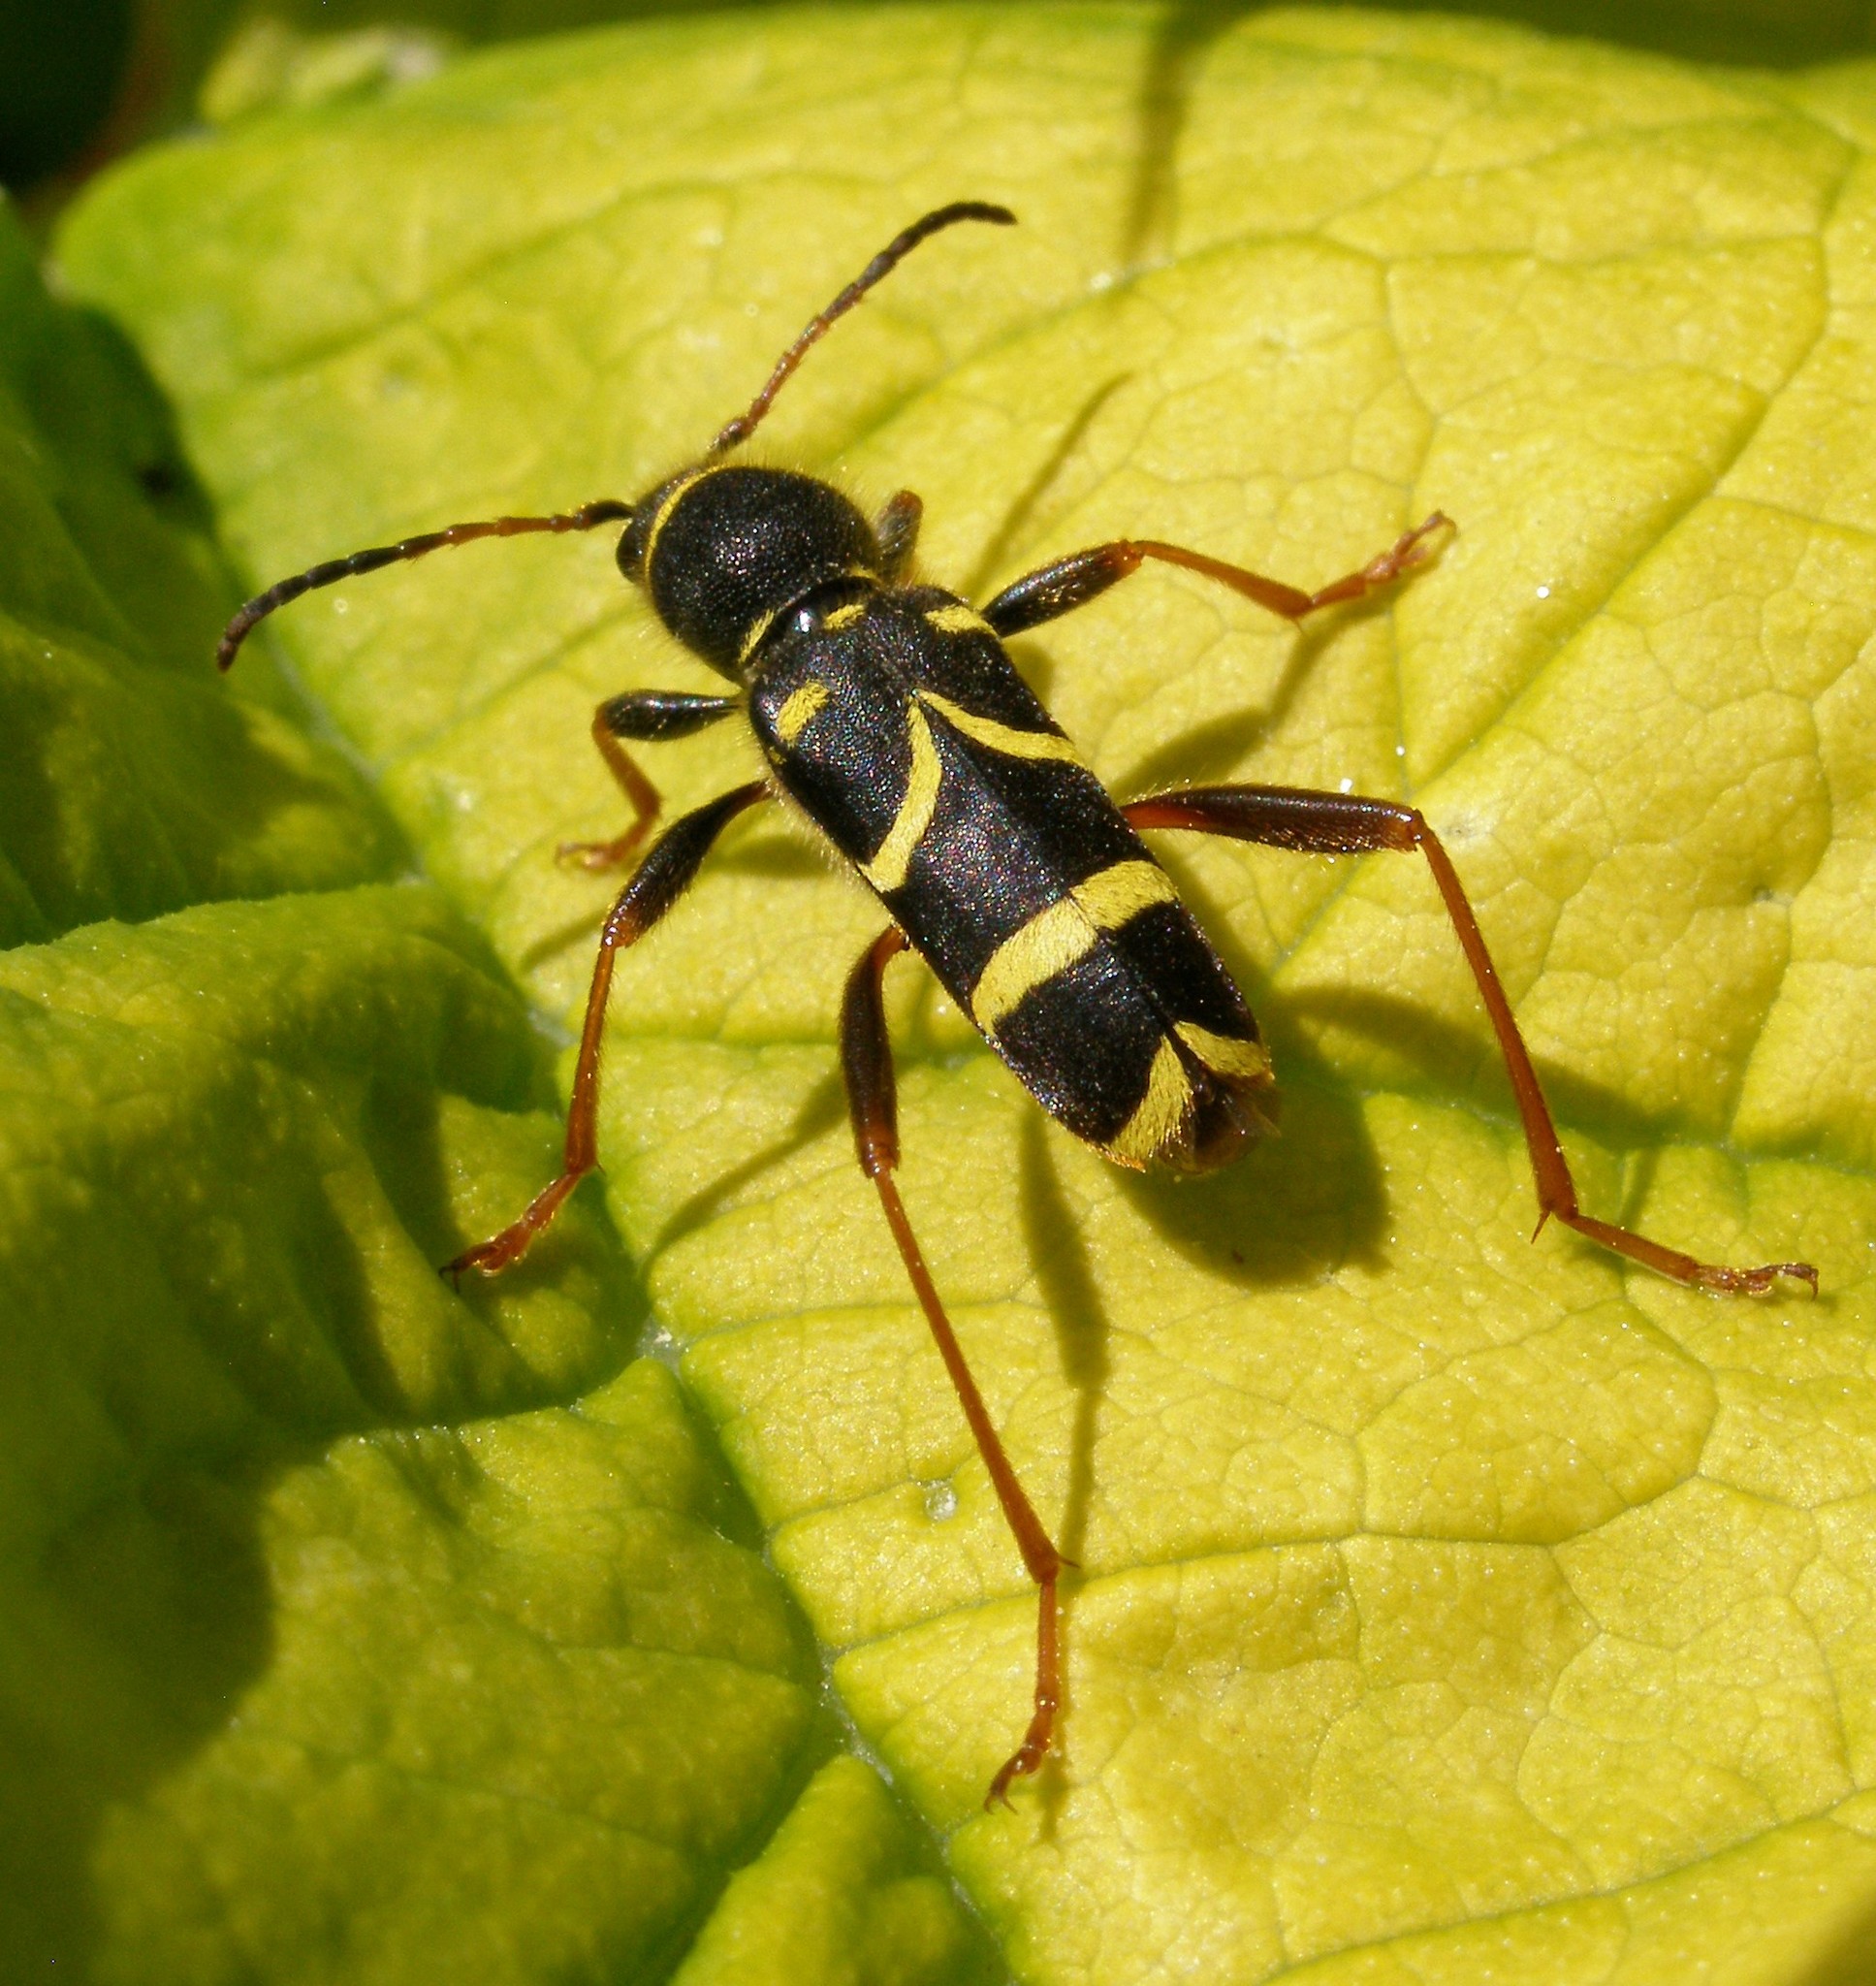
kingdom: Animalia
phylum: Arthropoda
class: Insecta
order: Coleoptera
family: Cerambycidae
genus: Clytus
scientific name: Clytus arietis
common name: Wasp beetle
